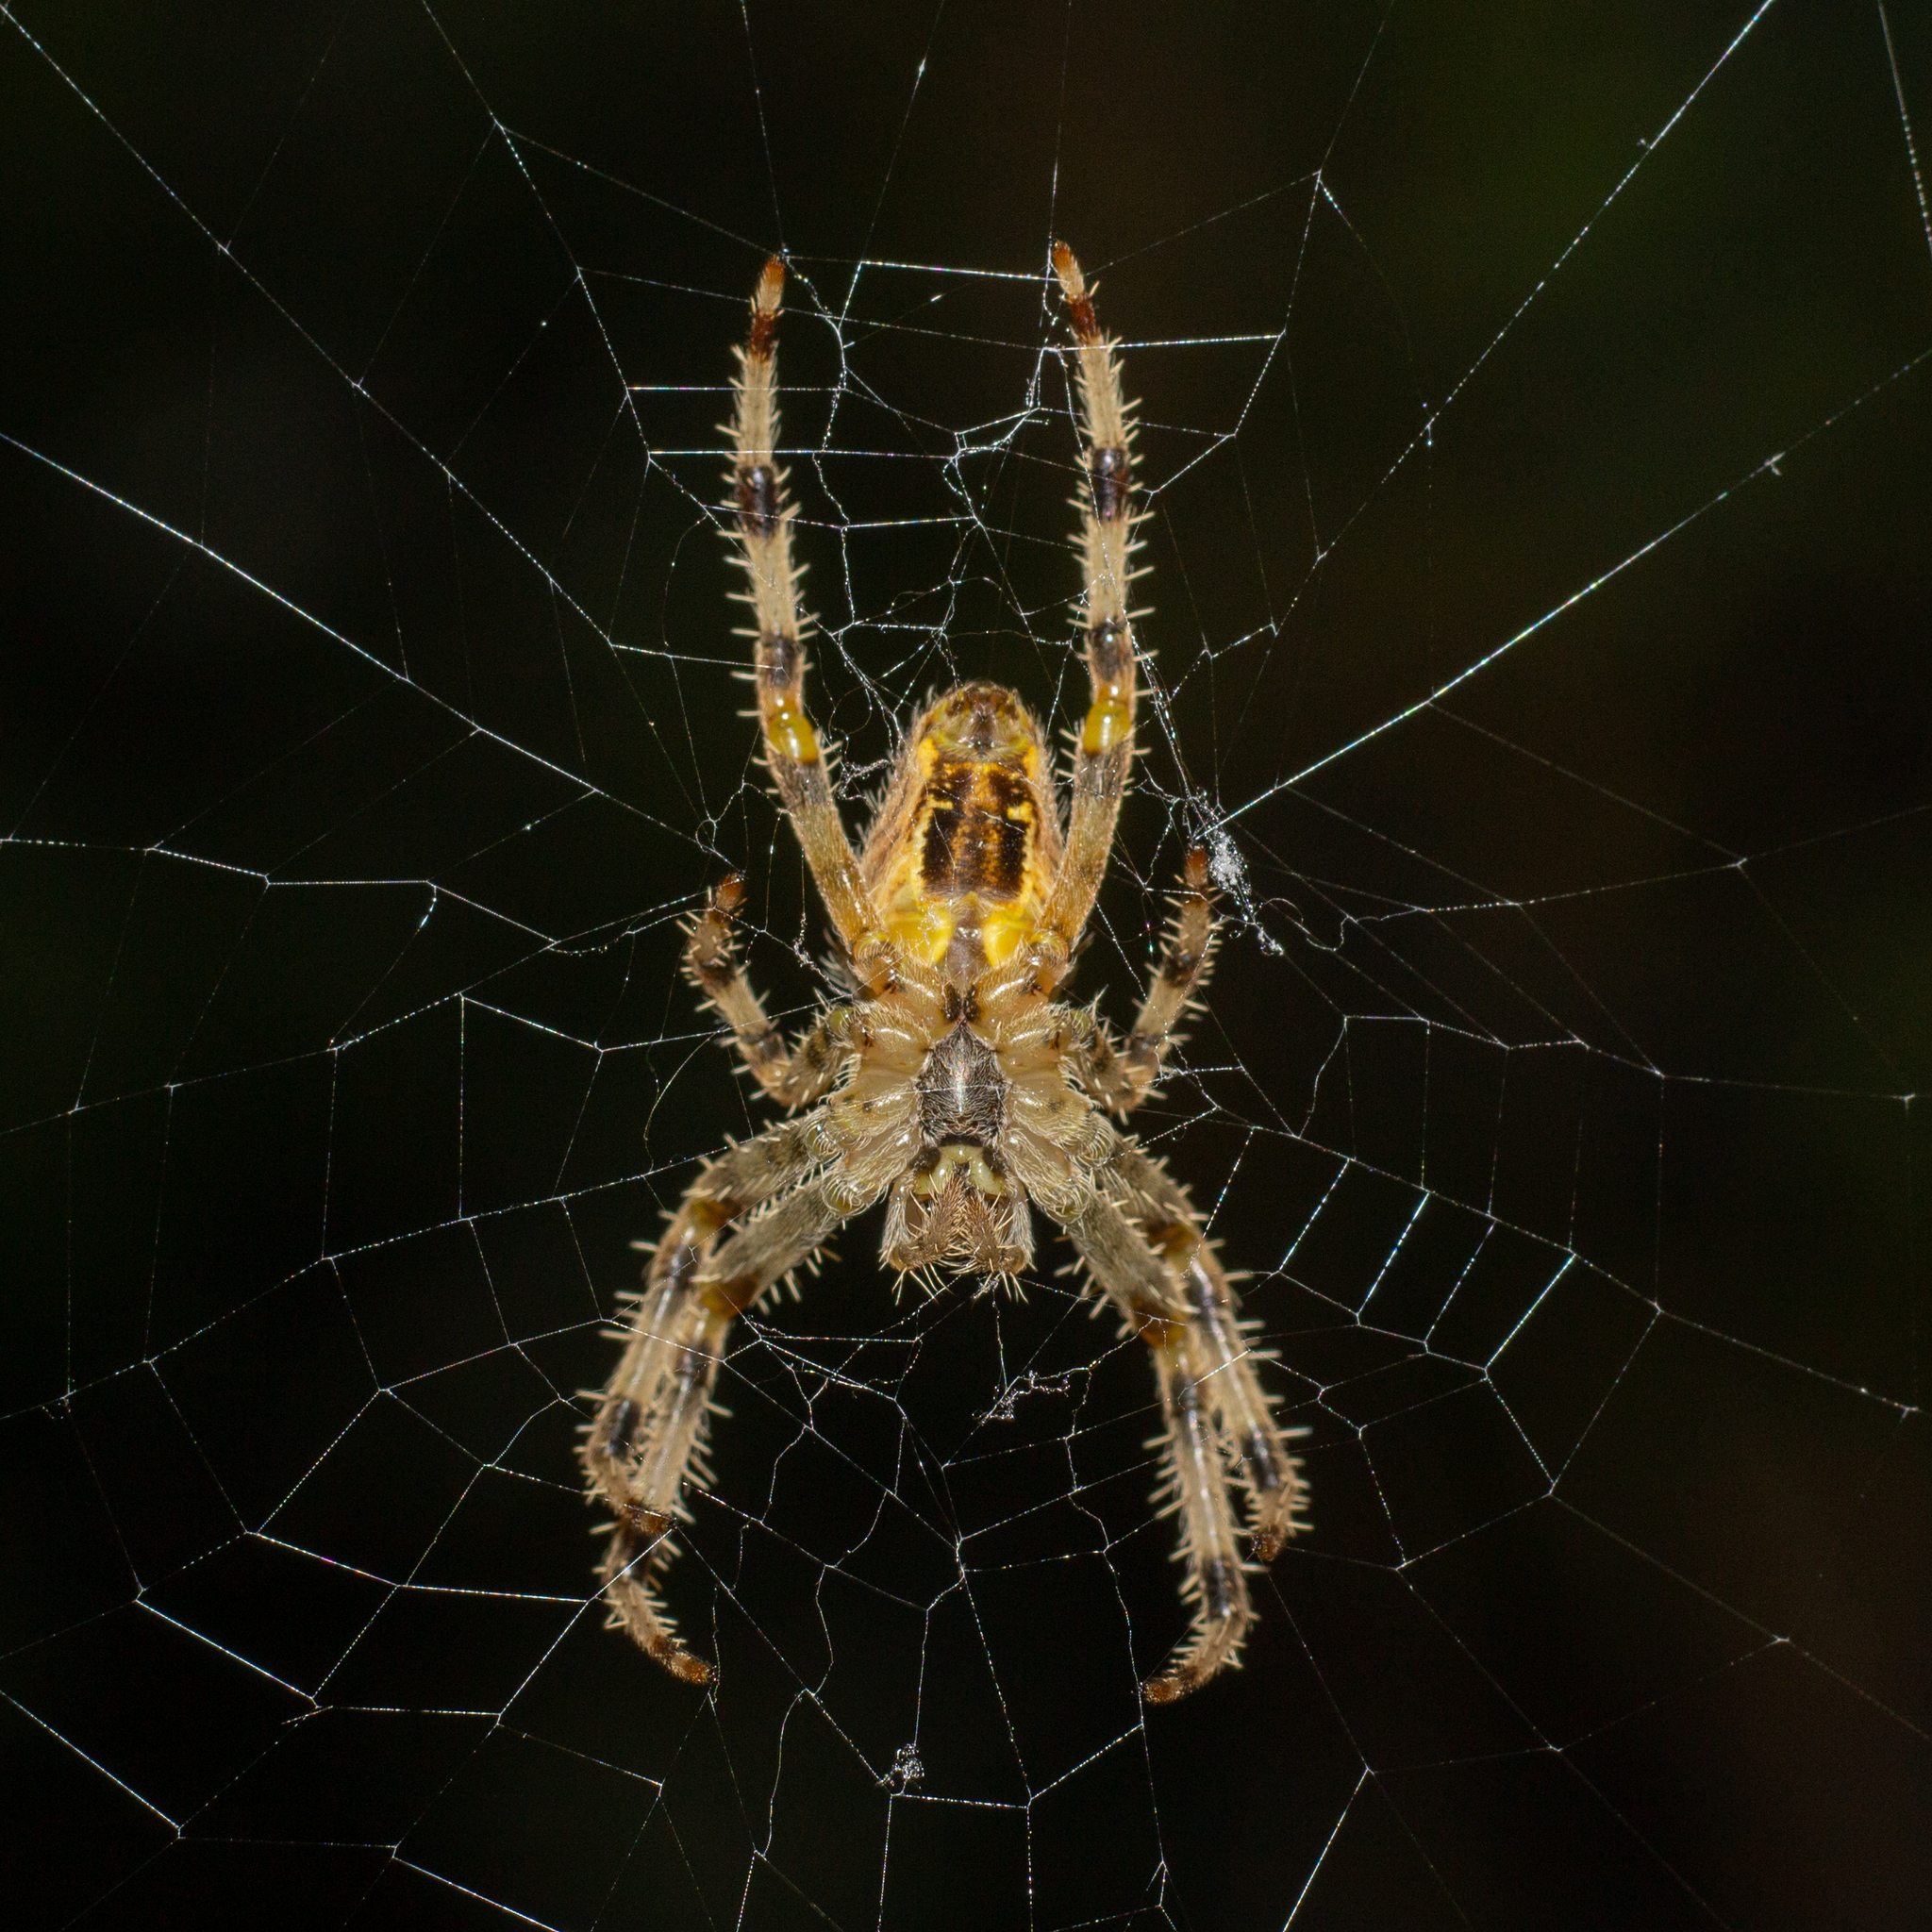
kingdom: Animalia
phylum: Arthropoda
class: Arachnida
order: Araneae
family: Araneidae
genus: Araneus
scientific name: Araneus diadematus
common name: Cross orbweaver
